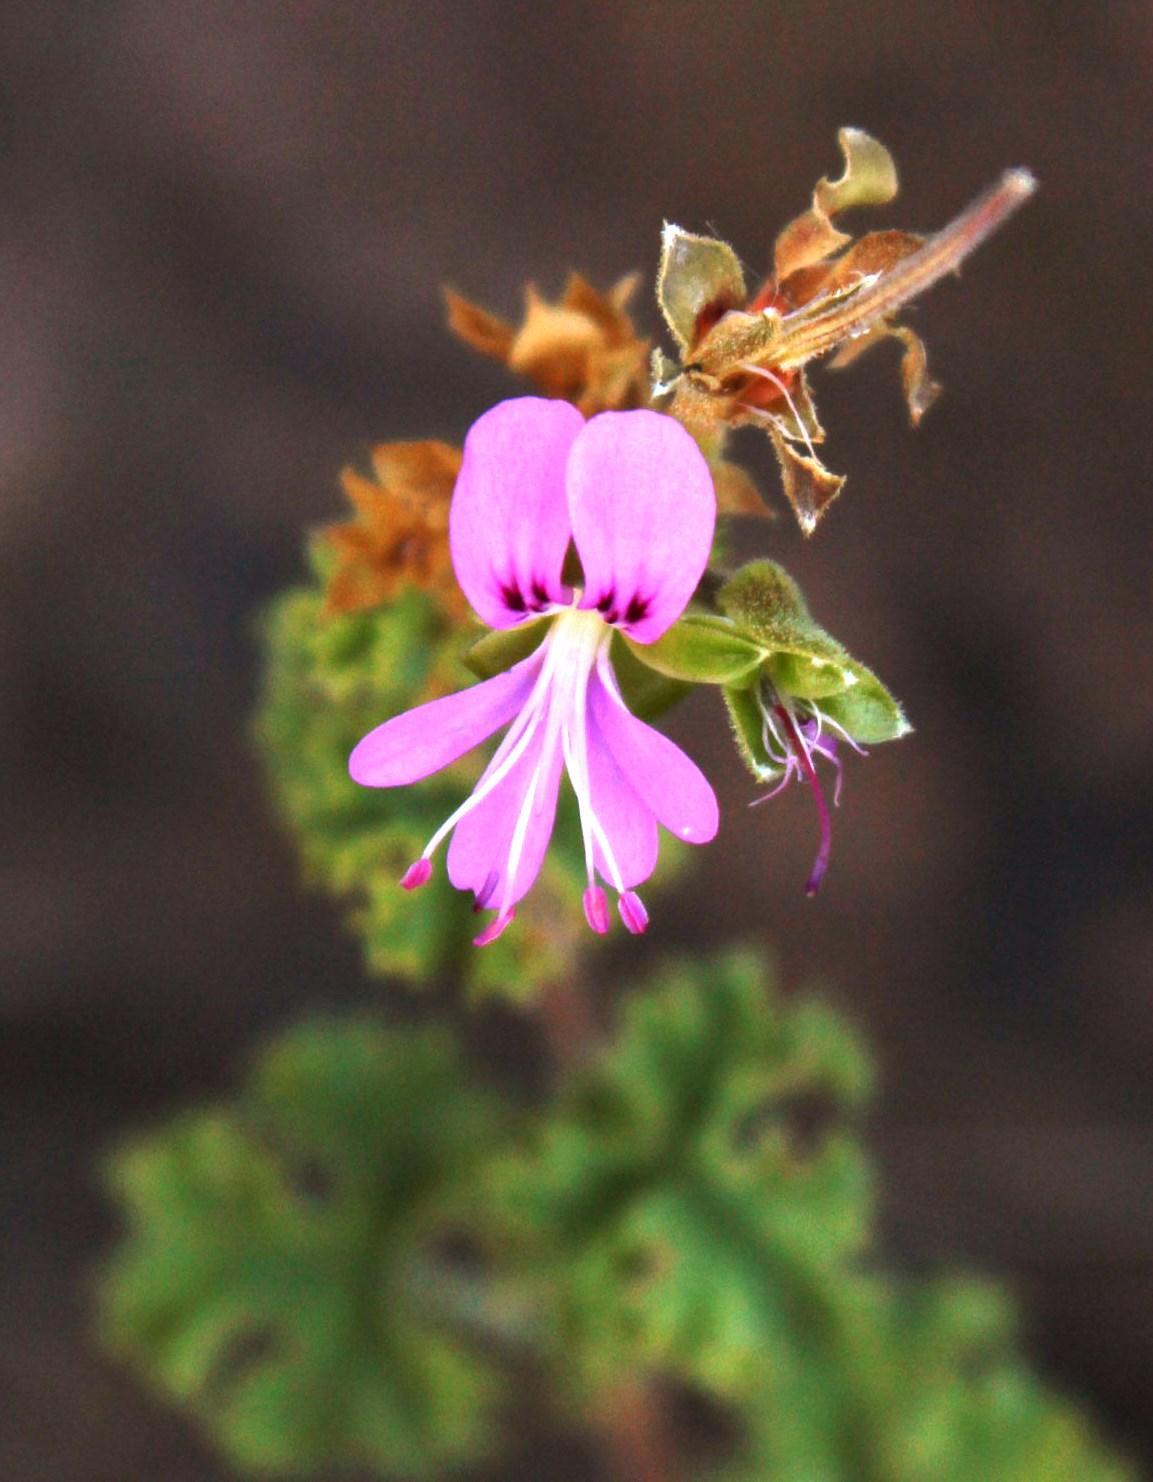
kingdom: Plantae
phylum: Tracheophyta
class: Magnoliopsida
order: Geraniales
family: Geraniaceae
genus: Pelargonium
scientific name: Pelargonium crispum
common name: Crisped-leaf pelargonium
